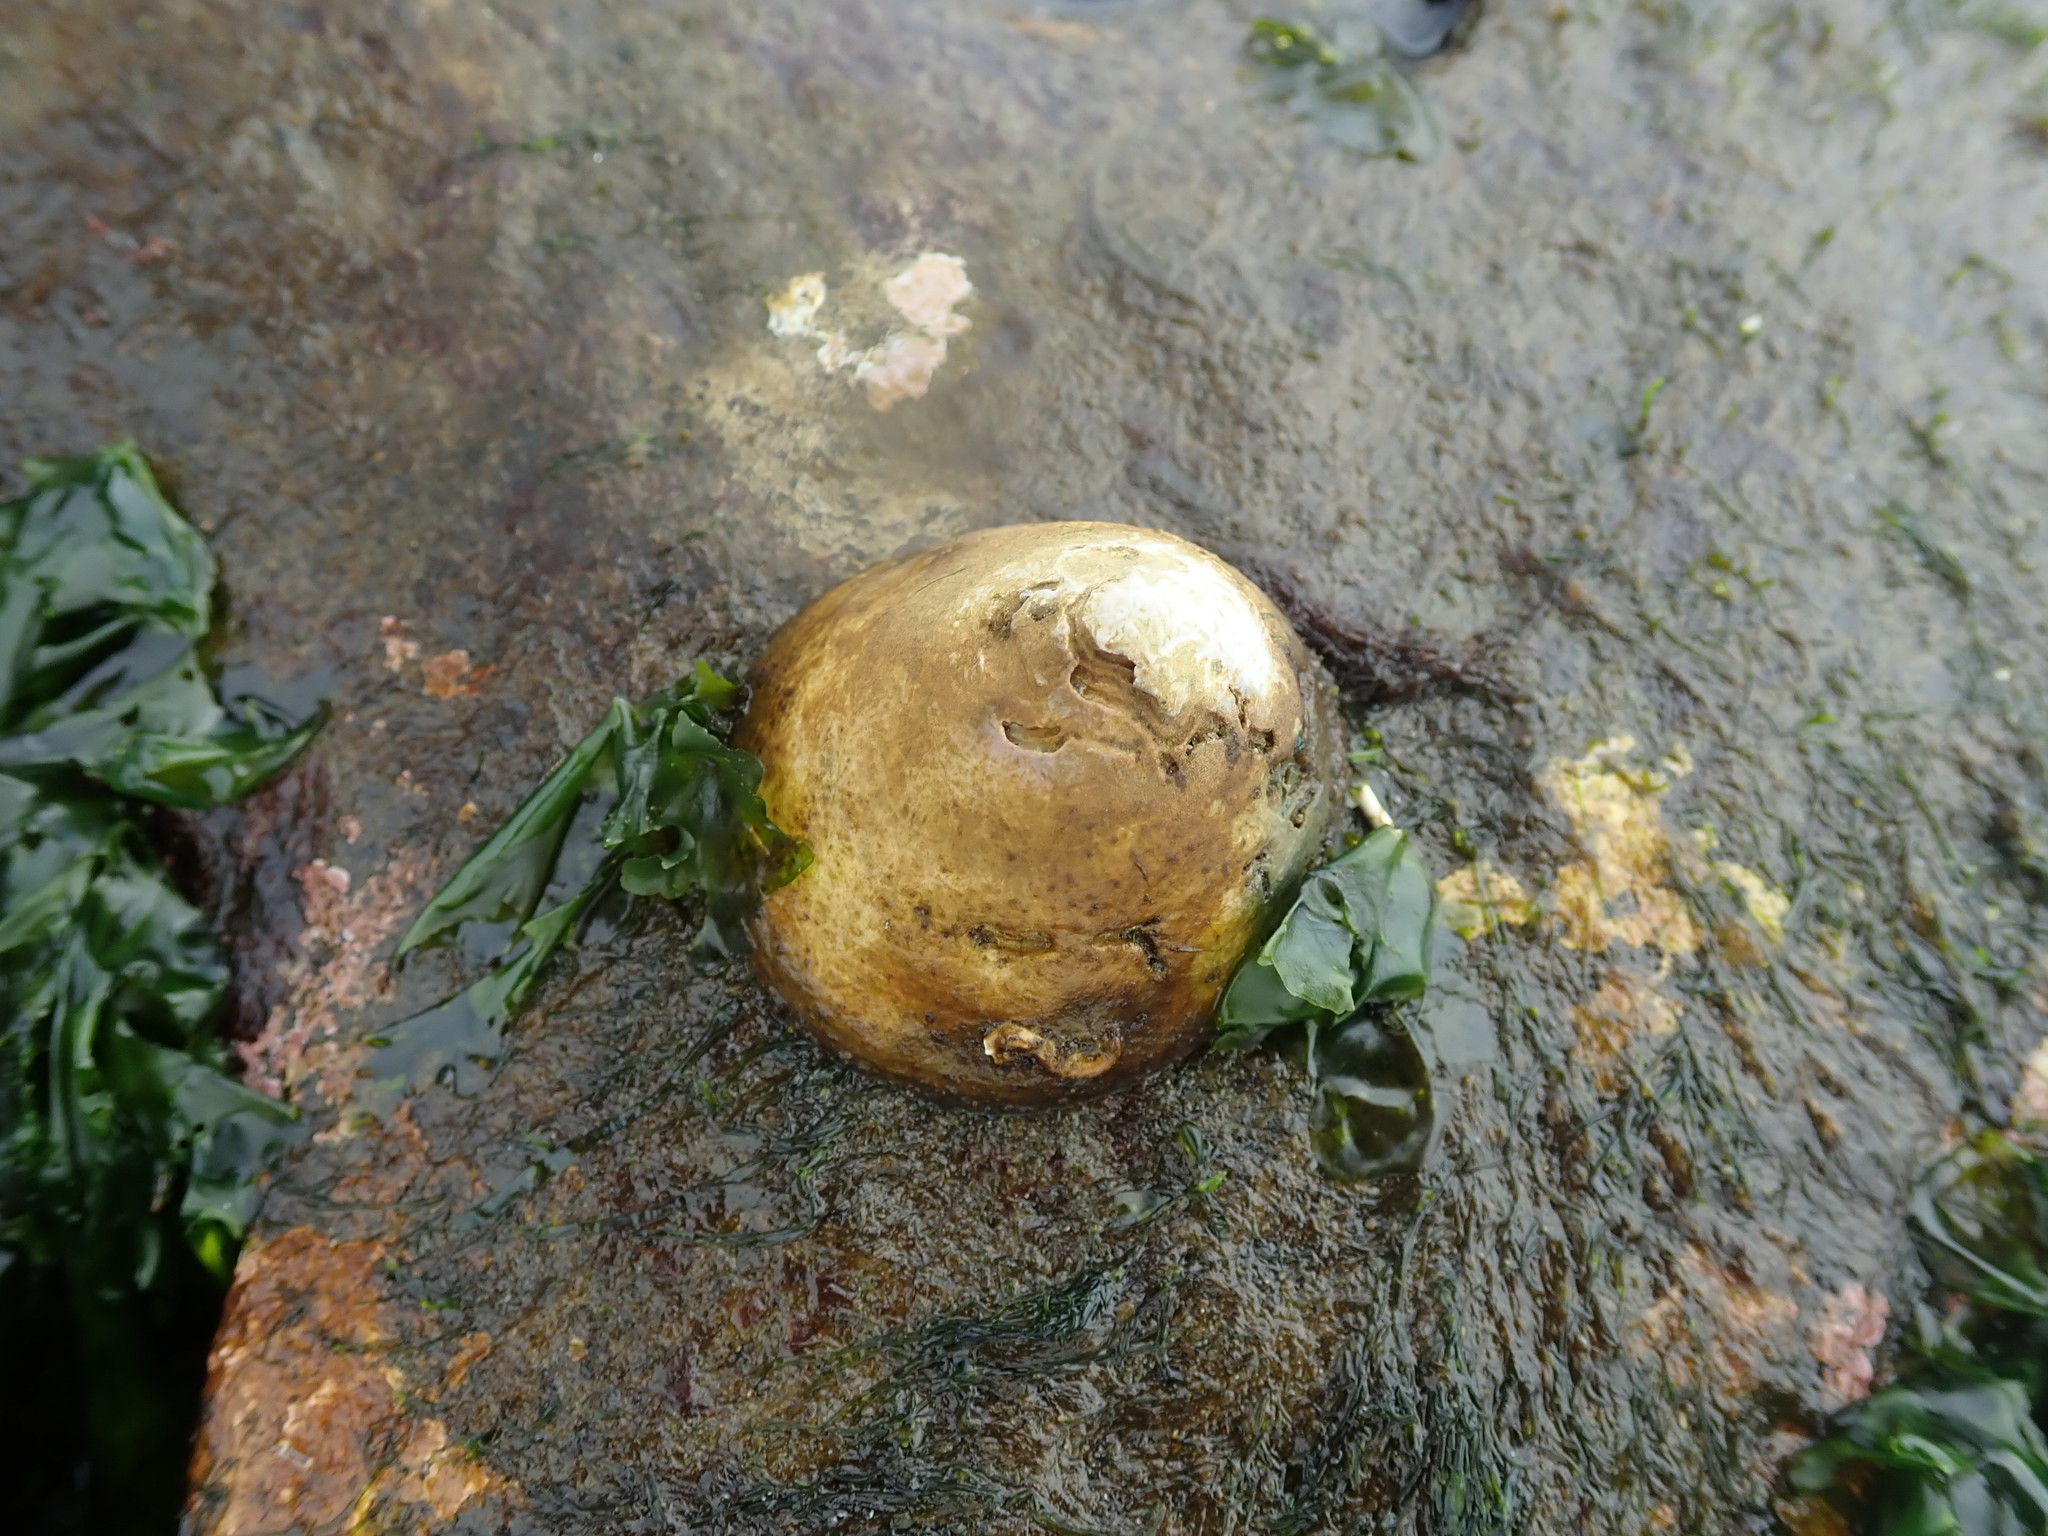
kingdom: Animalia
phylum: Mollusca
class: Gastropoda
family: Acmaeidae
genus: Acmaea
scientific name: Acmaea mitra
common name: Pacific white cap limpet
